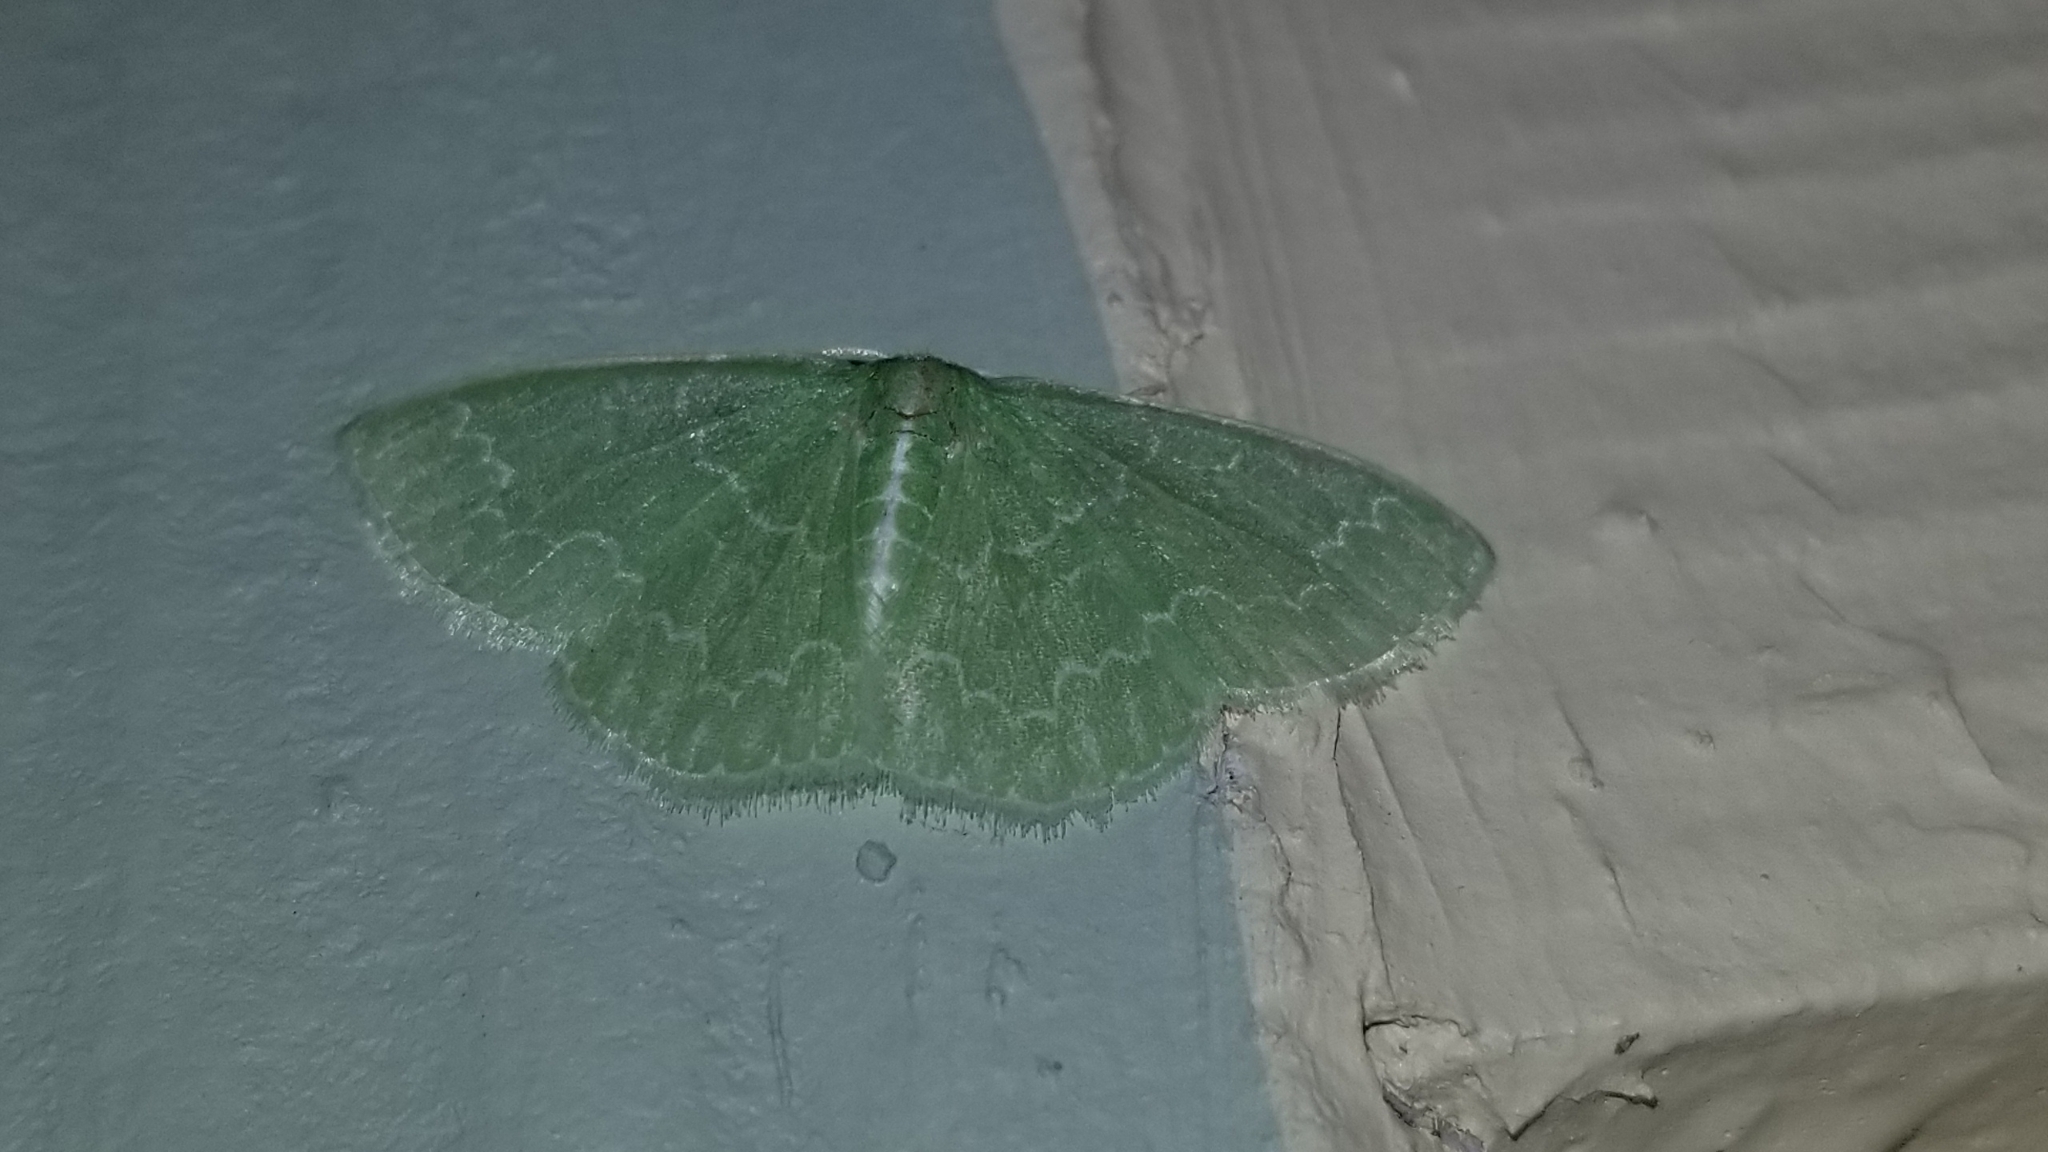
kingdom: Animalia
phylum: Arthropoda
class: Insecta
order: Lepidoptera
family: Geometridae
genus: Synchlora
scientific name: Synchlora frondaria
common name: Southern emerald
